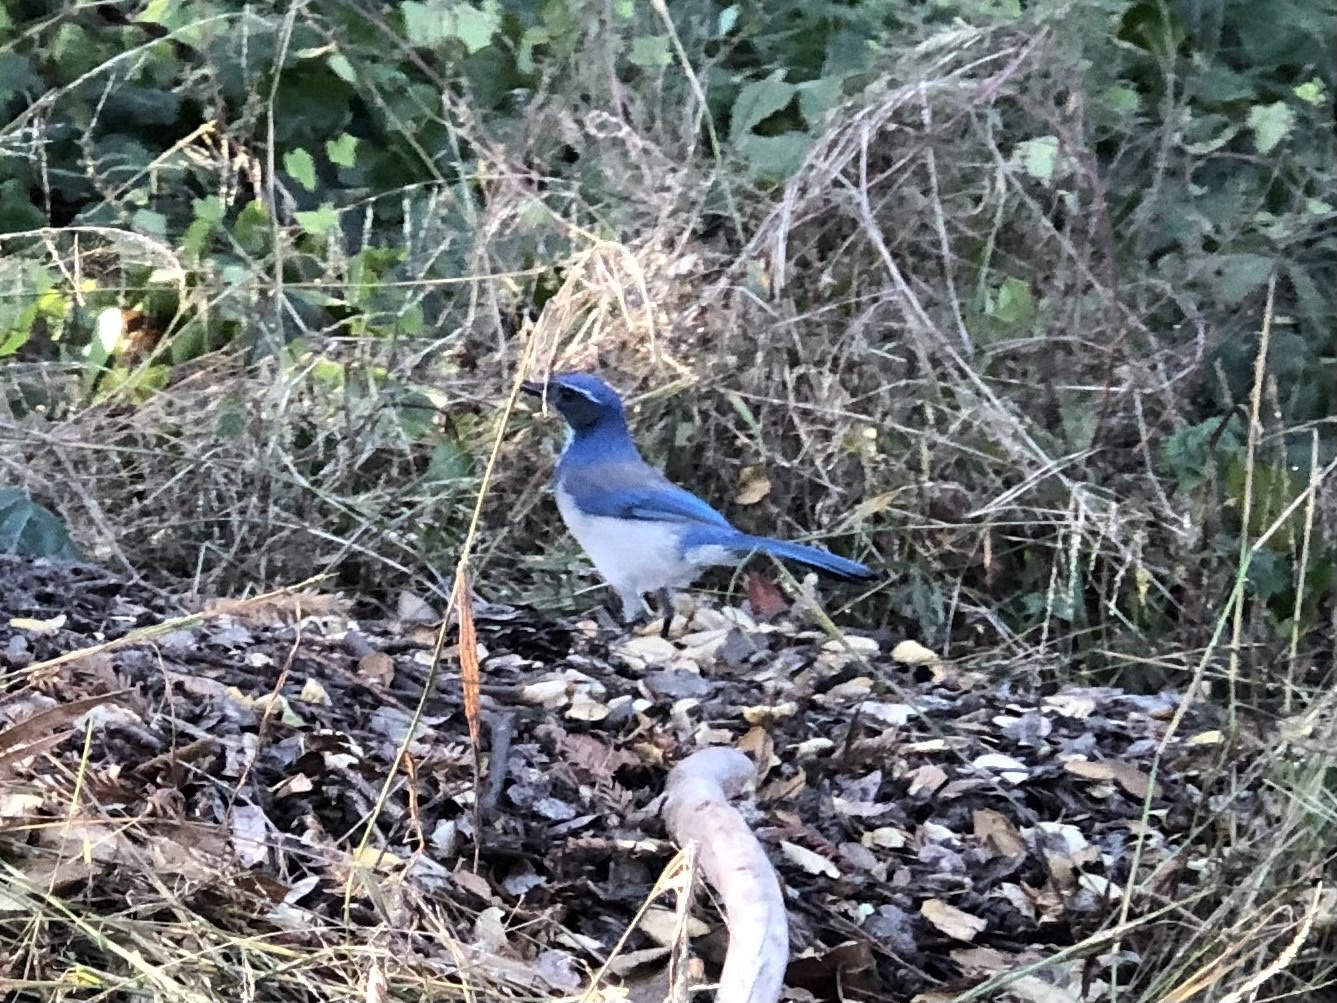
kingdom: Animalia
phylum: Chordata
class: Aves
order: Passeriformes
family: Corvidae
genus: Aphelocoma
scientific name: Aphelocoma californica
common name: California scrub-jay
